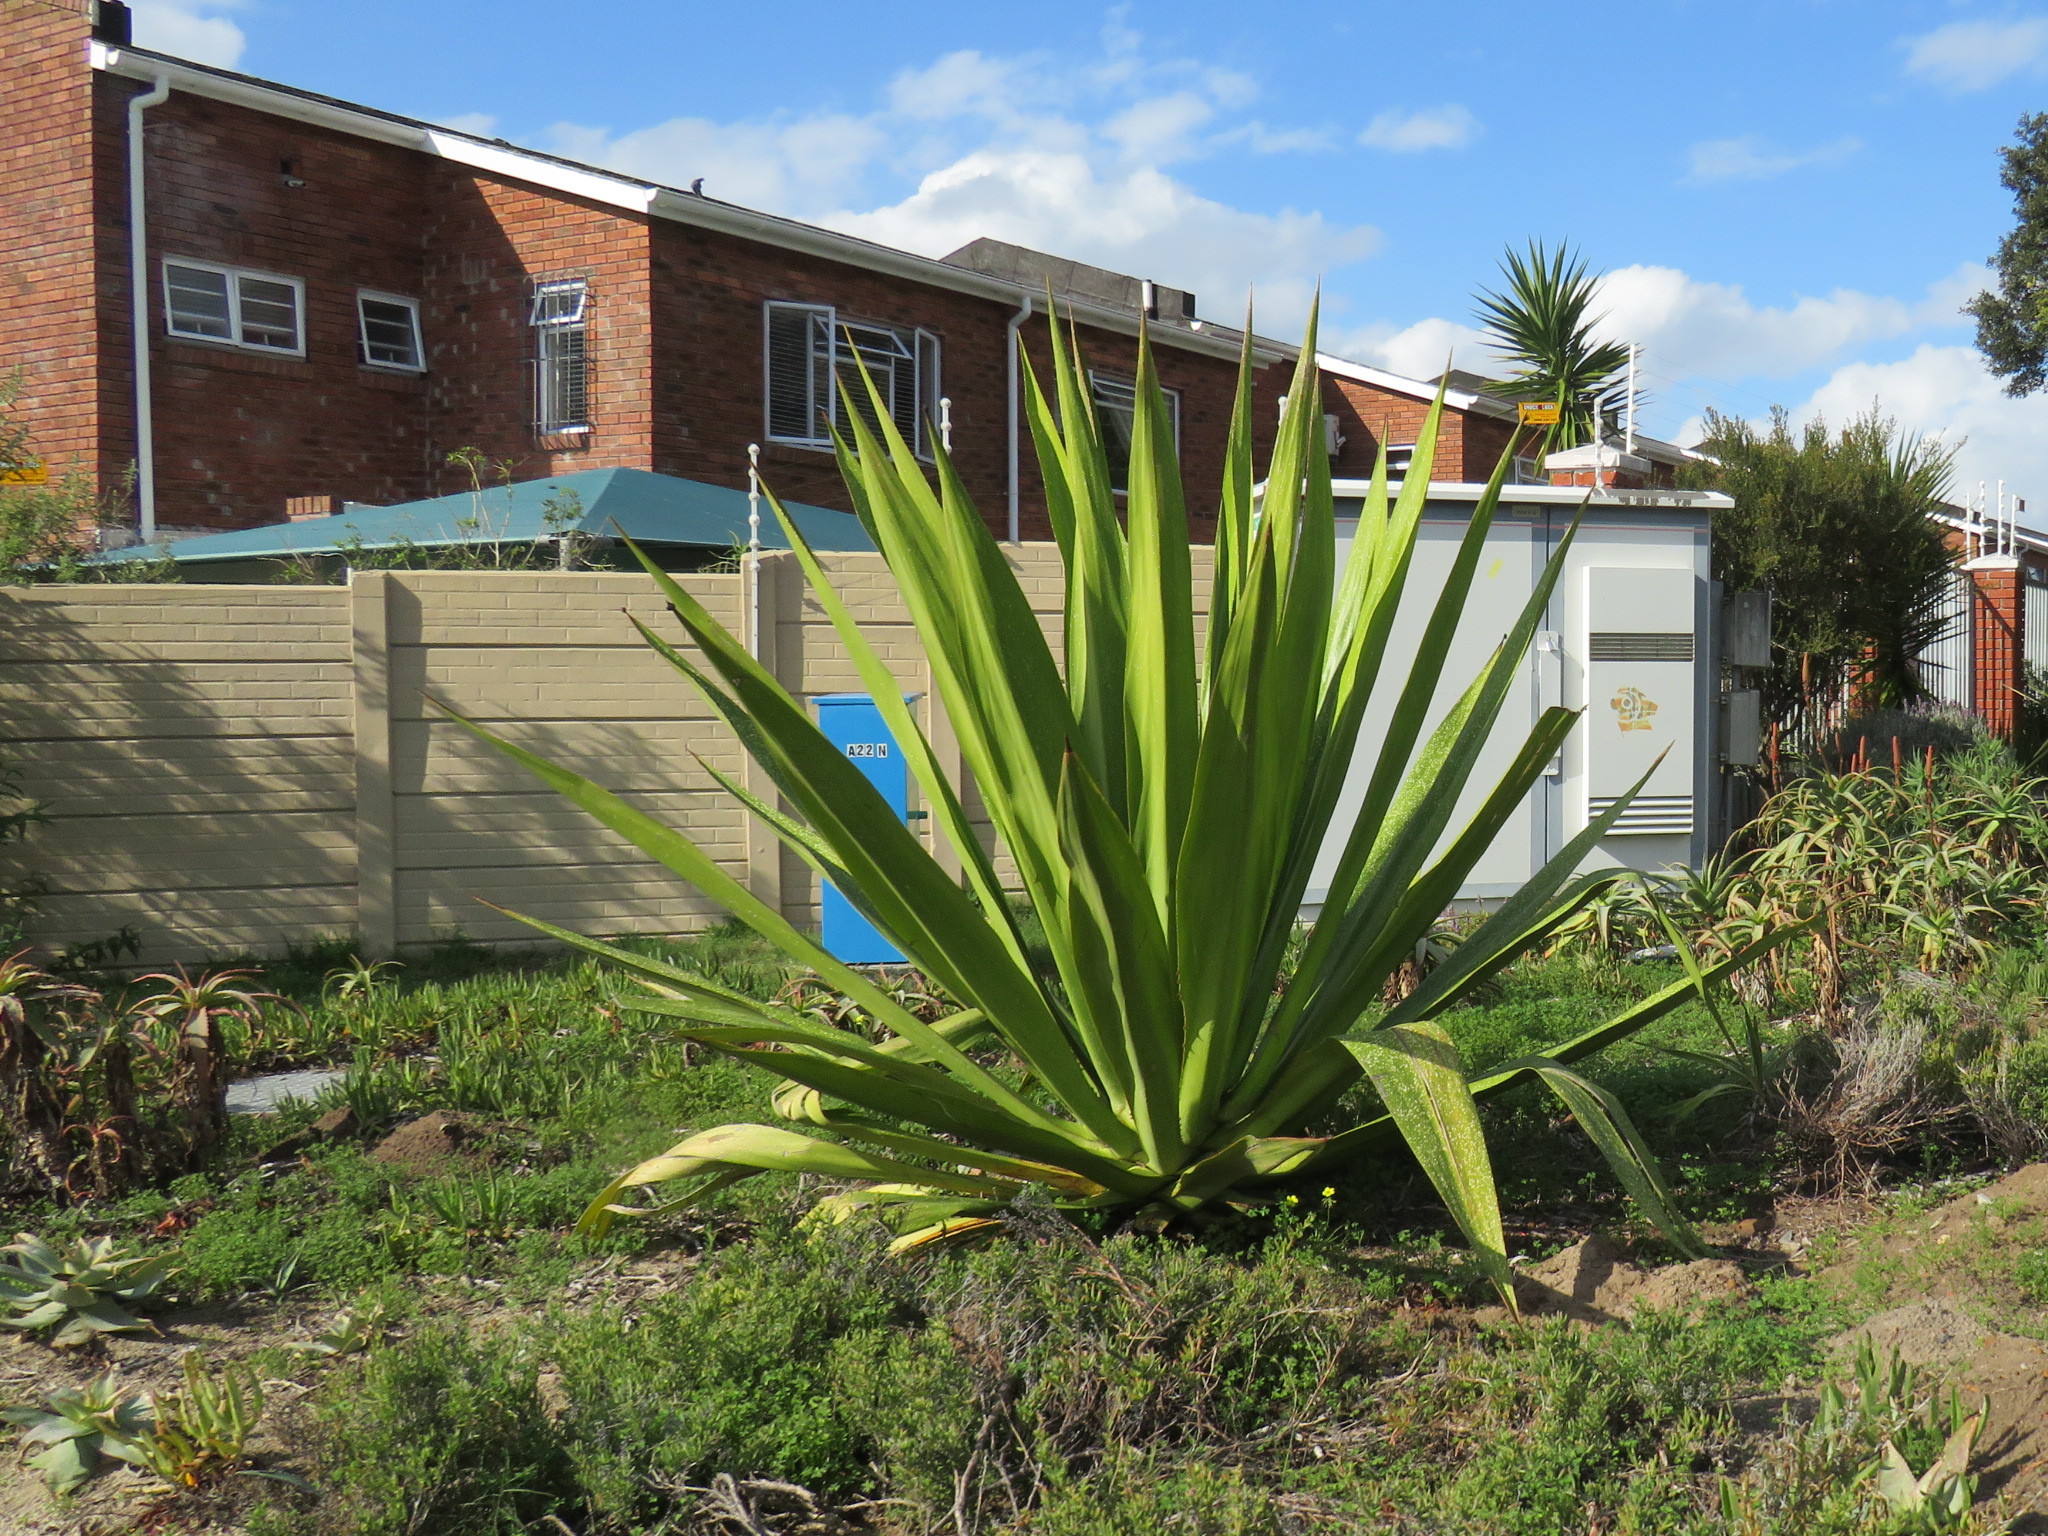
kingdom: Plantae
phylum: Tracheophyta
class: Liliopsida
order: Asparagales
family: Asparagaceae
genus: Furcraea
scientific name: Furcraea foetida
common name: Mauritius hemp
